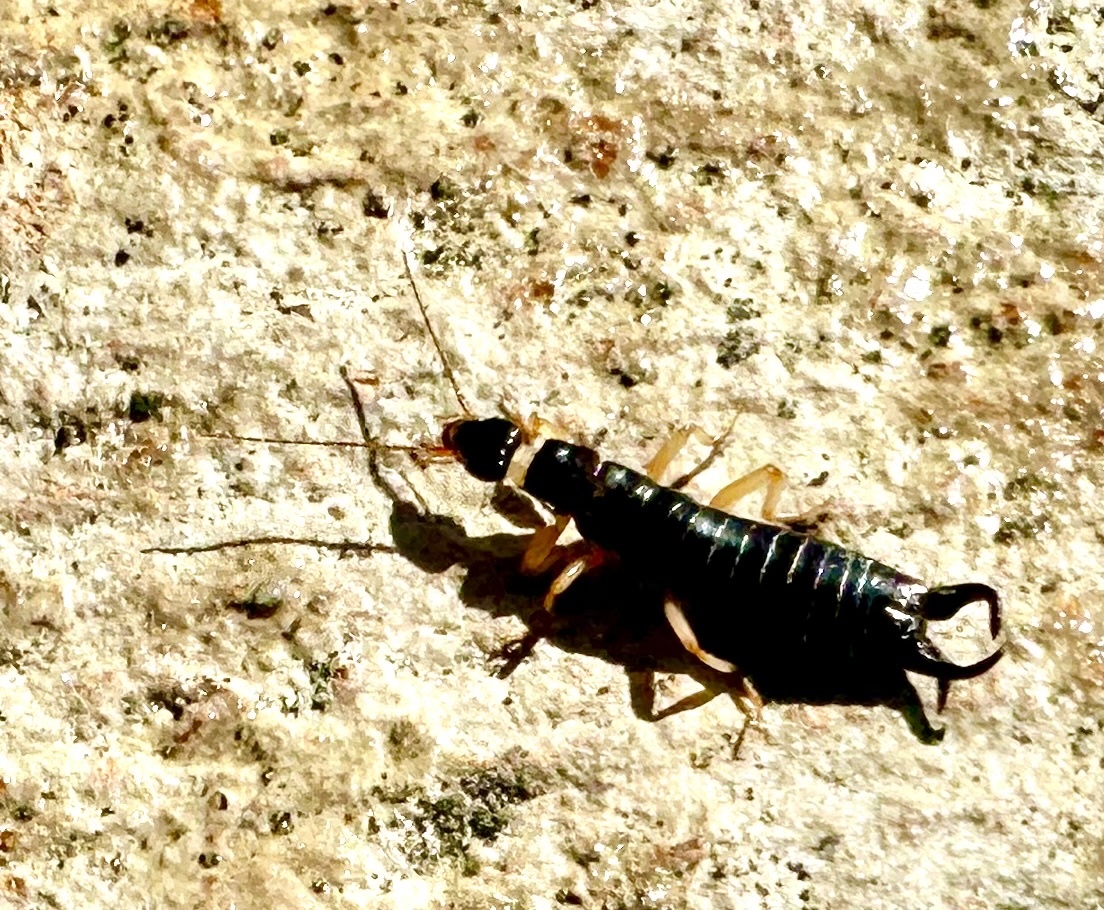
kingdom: Animalia
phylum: Arthropoda
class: Insecta
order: Dermaptera
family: Anisolabididae
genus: Anisolabis
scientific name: Anisolabis maritima
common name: Maritime earwig
